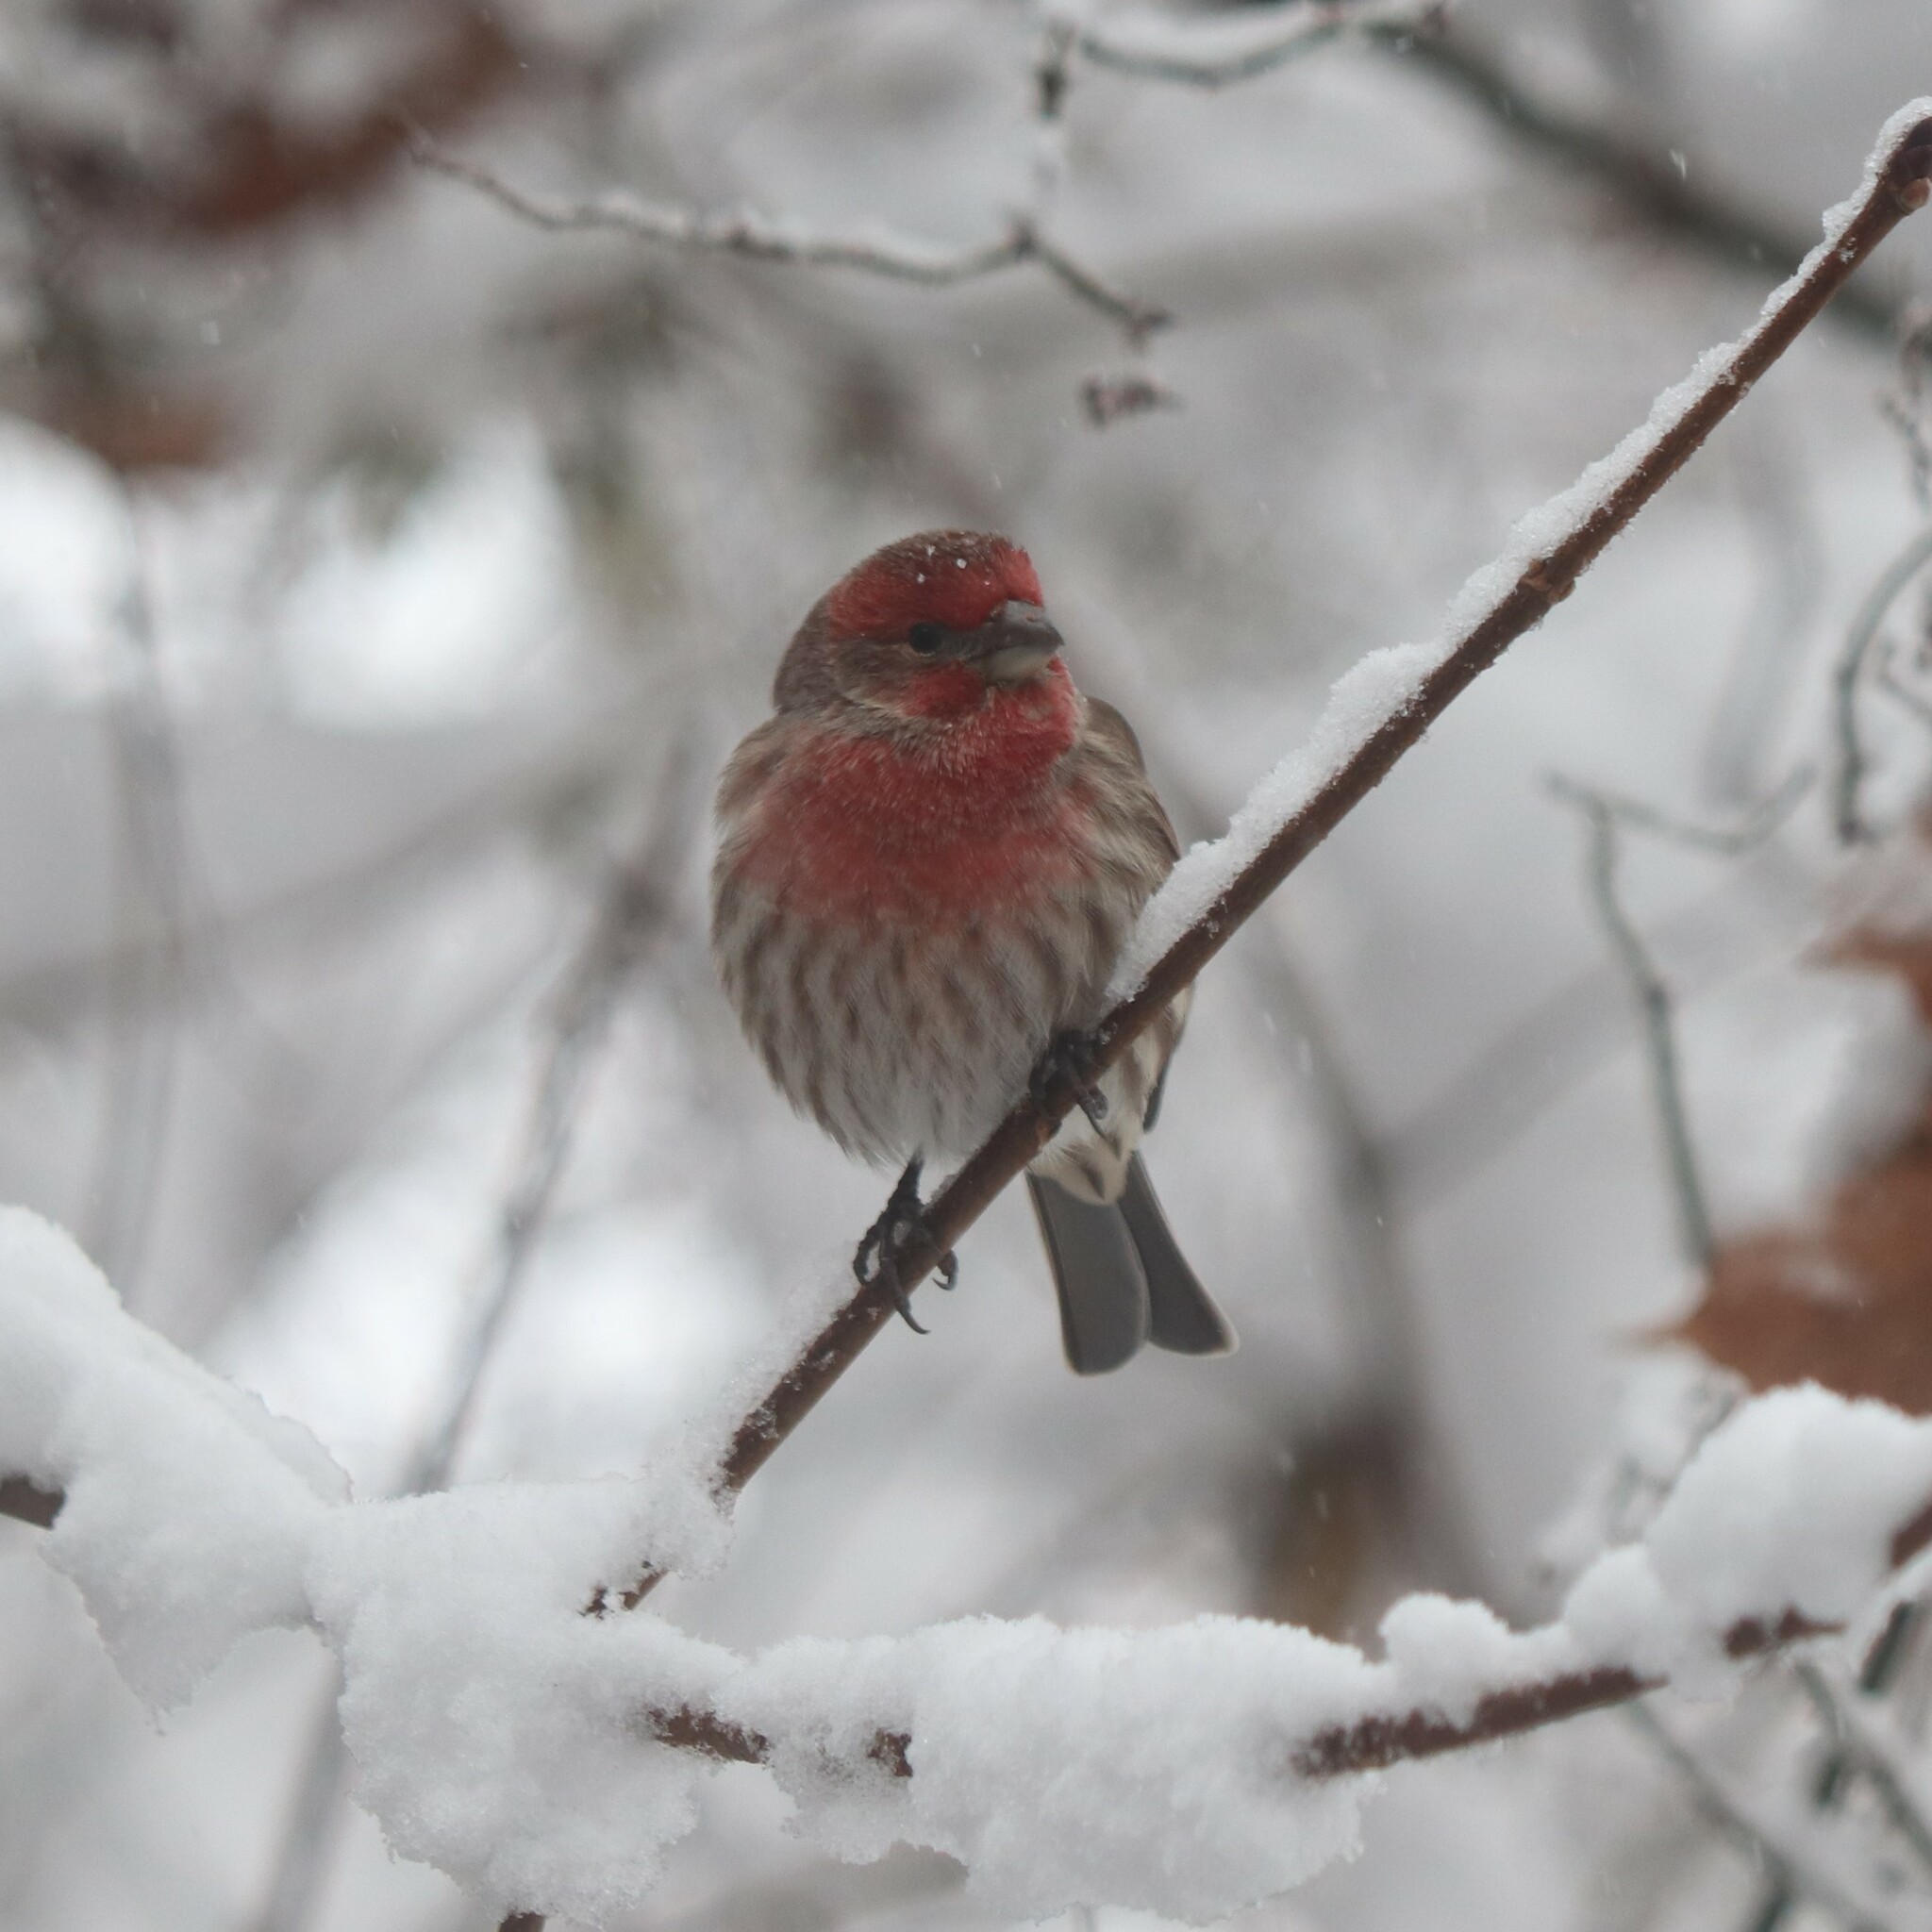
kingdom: Animalia
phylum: Chordata
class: Aves
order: Passeriformes
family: Fringillidae
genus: Haemorhous
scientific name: Haemorhous mexicanus
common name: House finch
